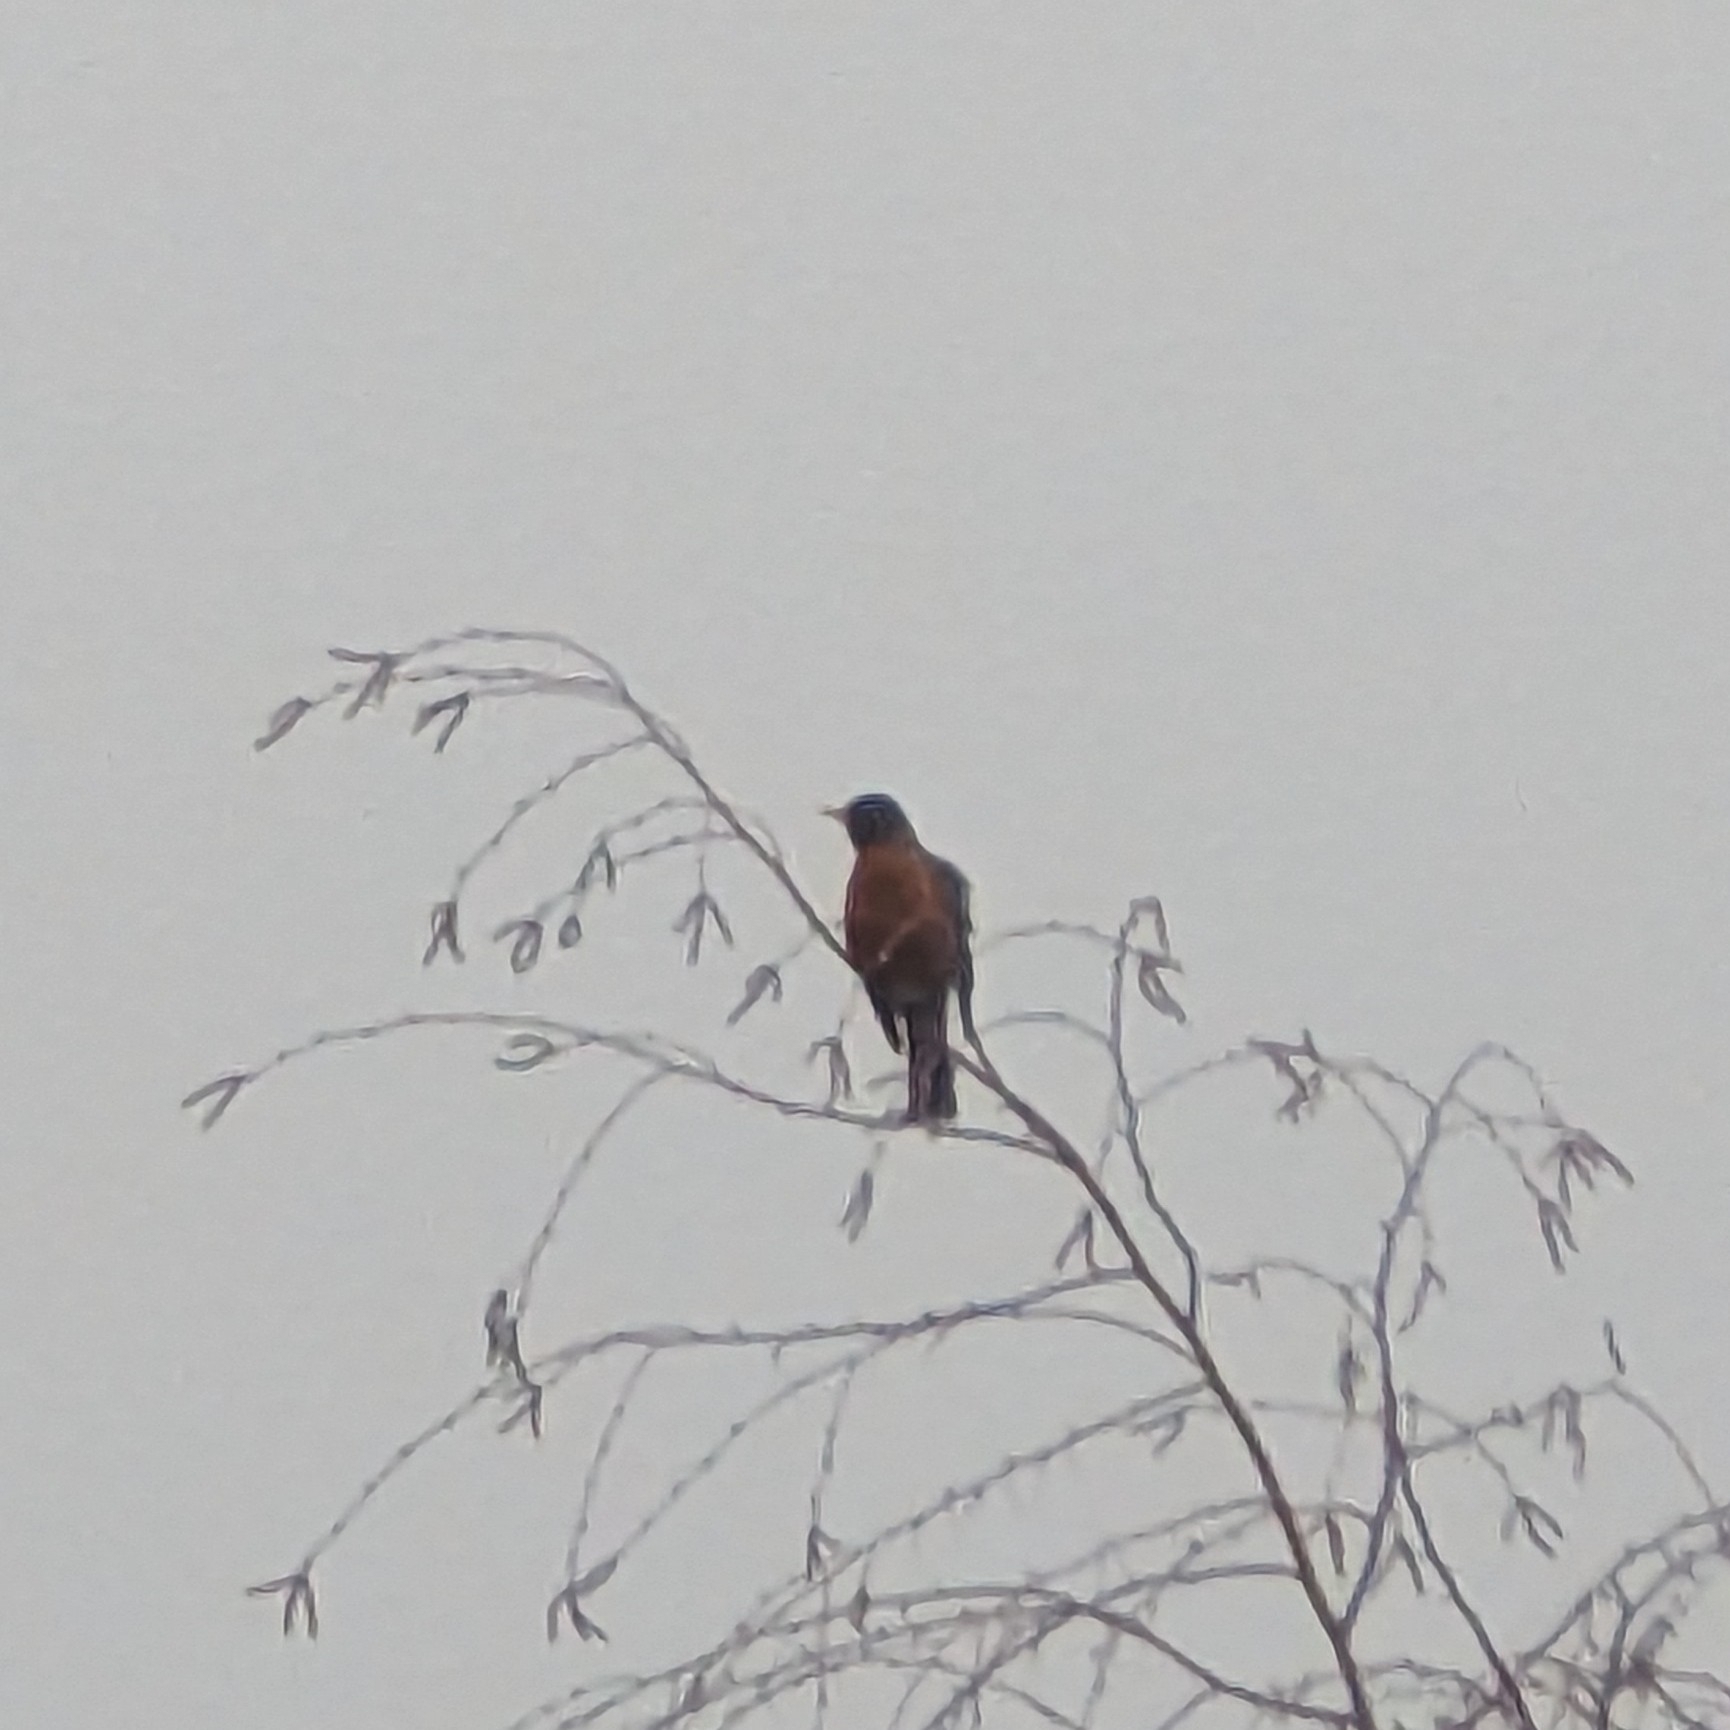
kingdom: Animalia
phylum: Chordata
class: Aves
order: Passeriformes
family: Turdidae
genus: Turdus
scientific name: Turdus migratorius
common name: American robin
